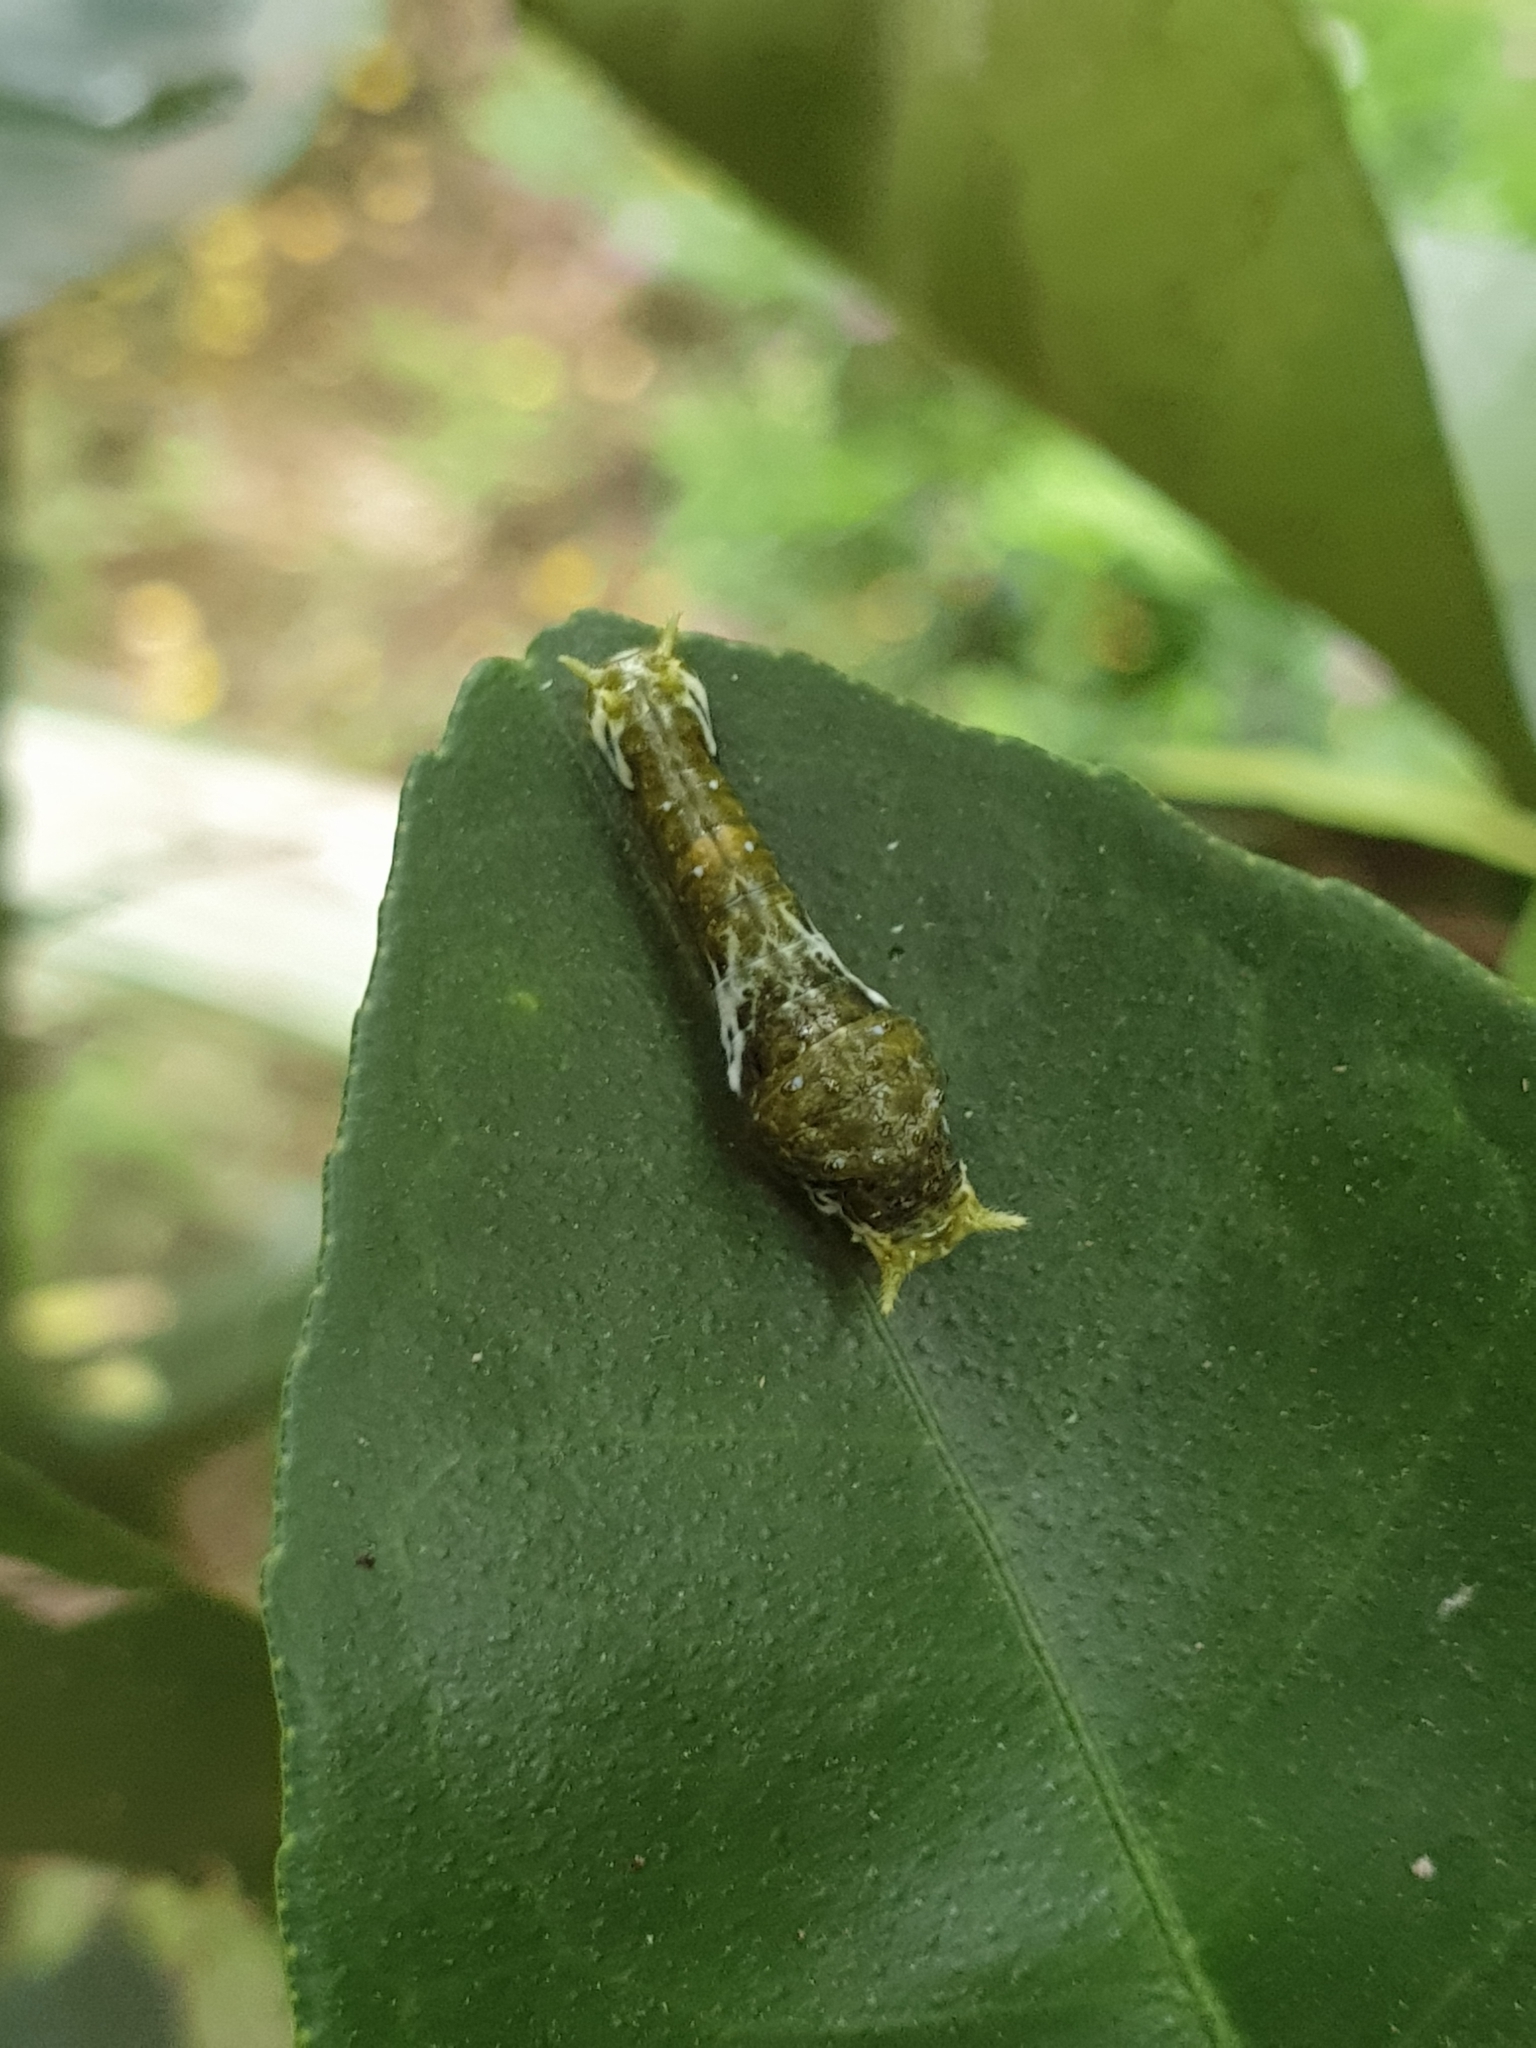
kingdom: Animalia
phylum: Arthropoda
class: Insecta
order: Lepidoptera
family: Papilionidae
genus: Papilio
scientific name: Papilio demoleus
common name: Lime butterfly
